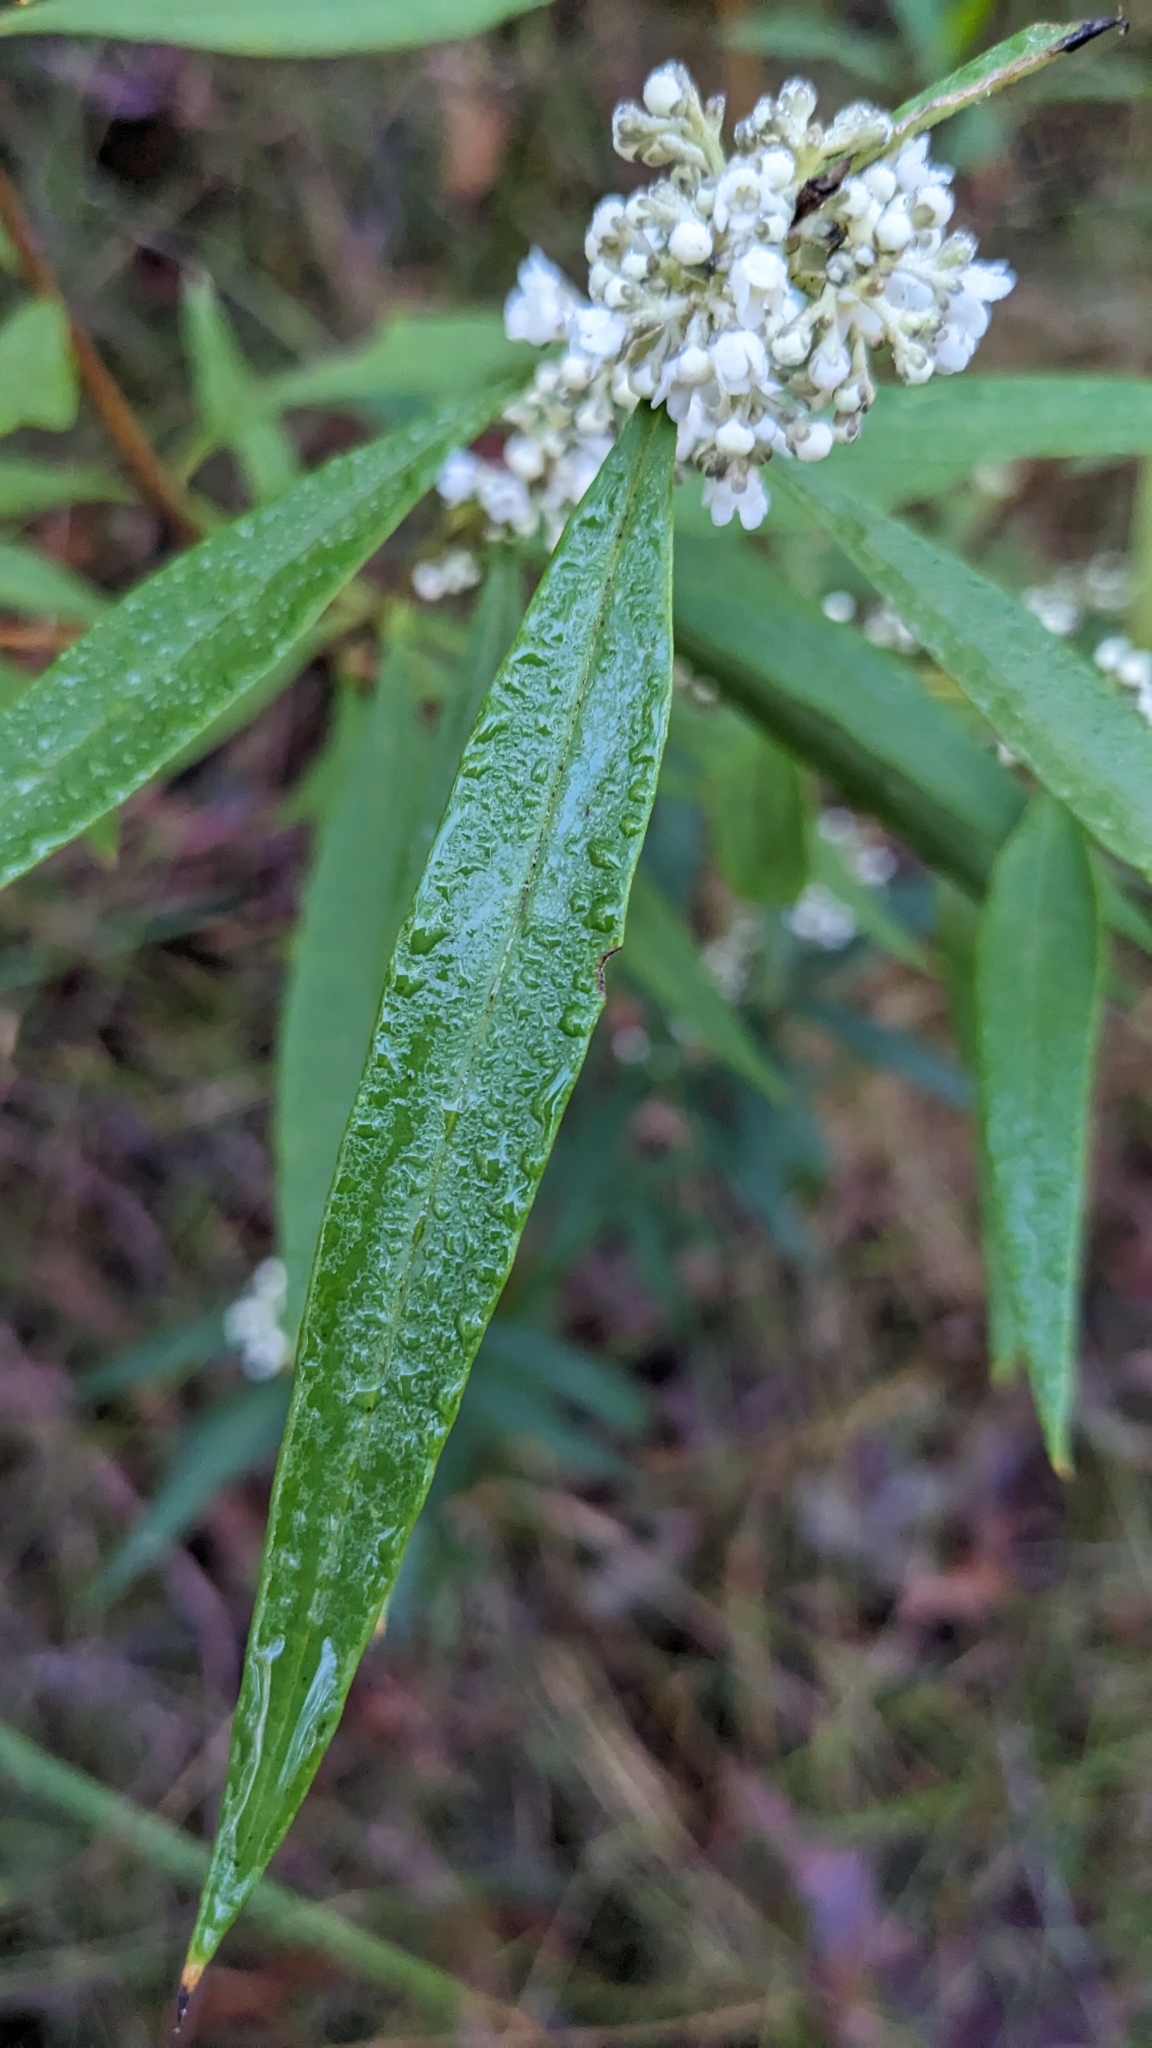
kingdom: Plantae
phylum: Tracheophyta
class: Magnoliopsida
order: Gentianales
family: Loganiaceae
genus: Logania
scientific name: Logania albiflora
